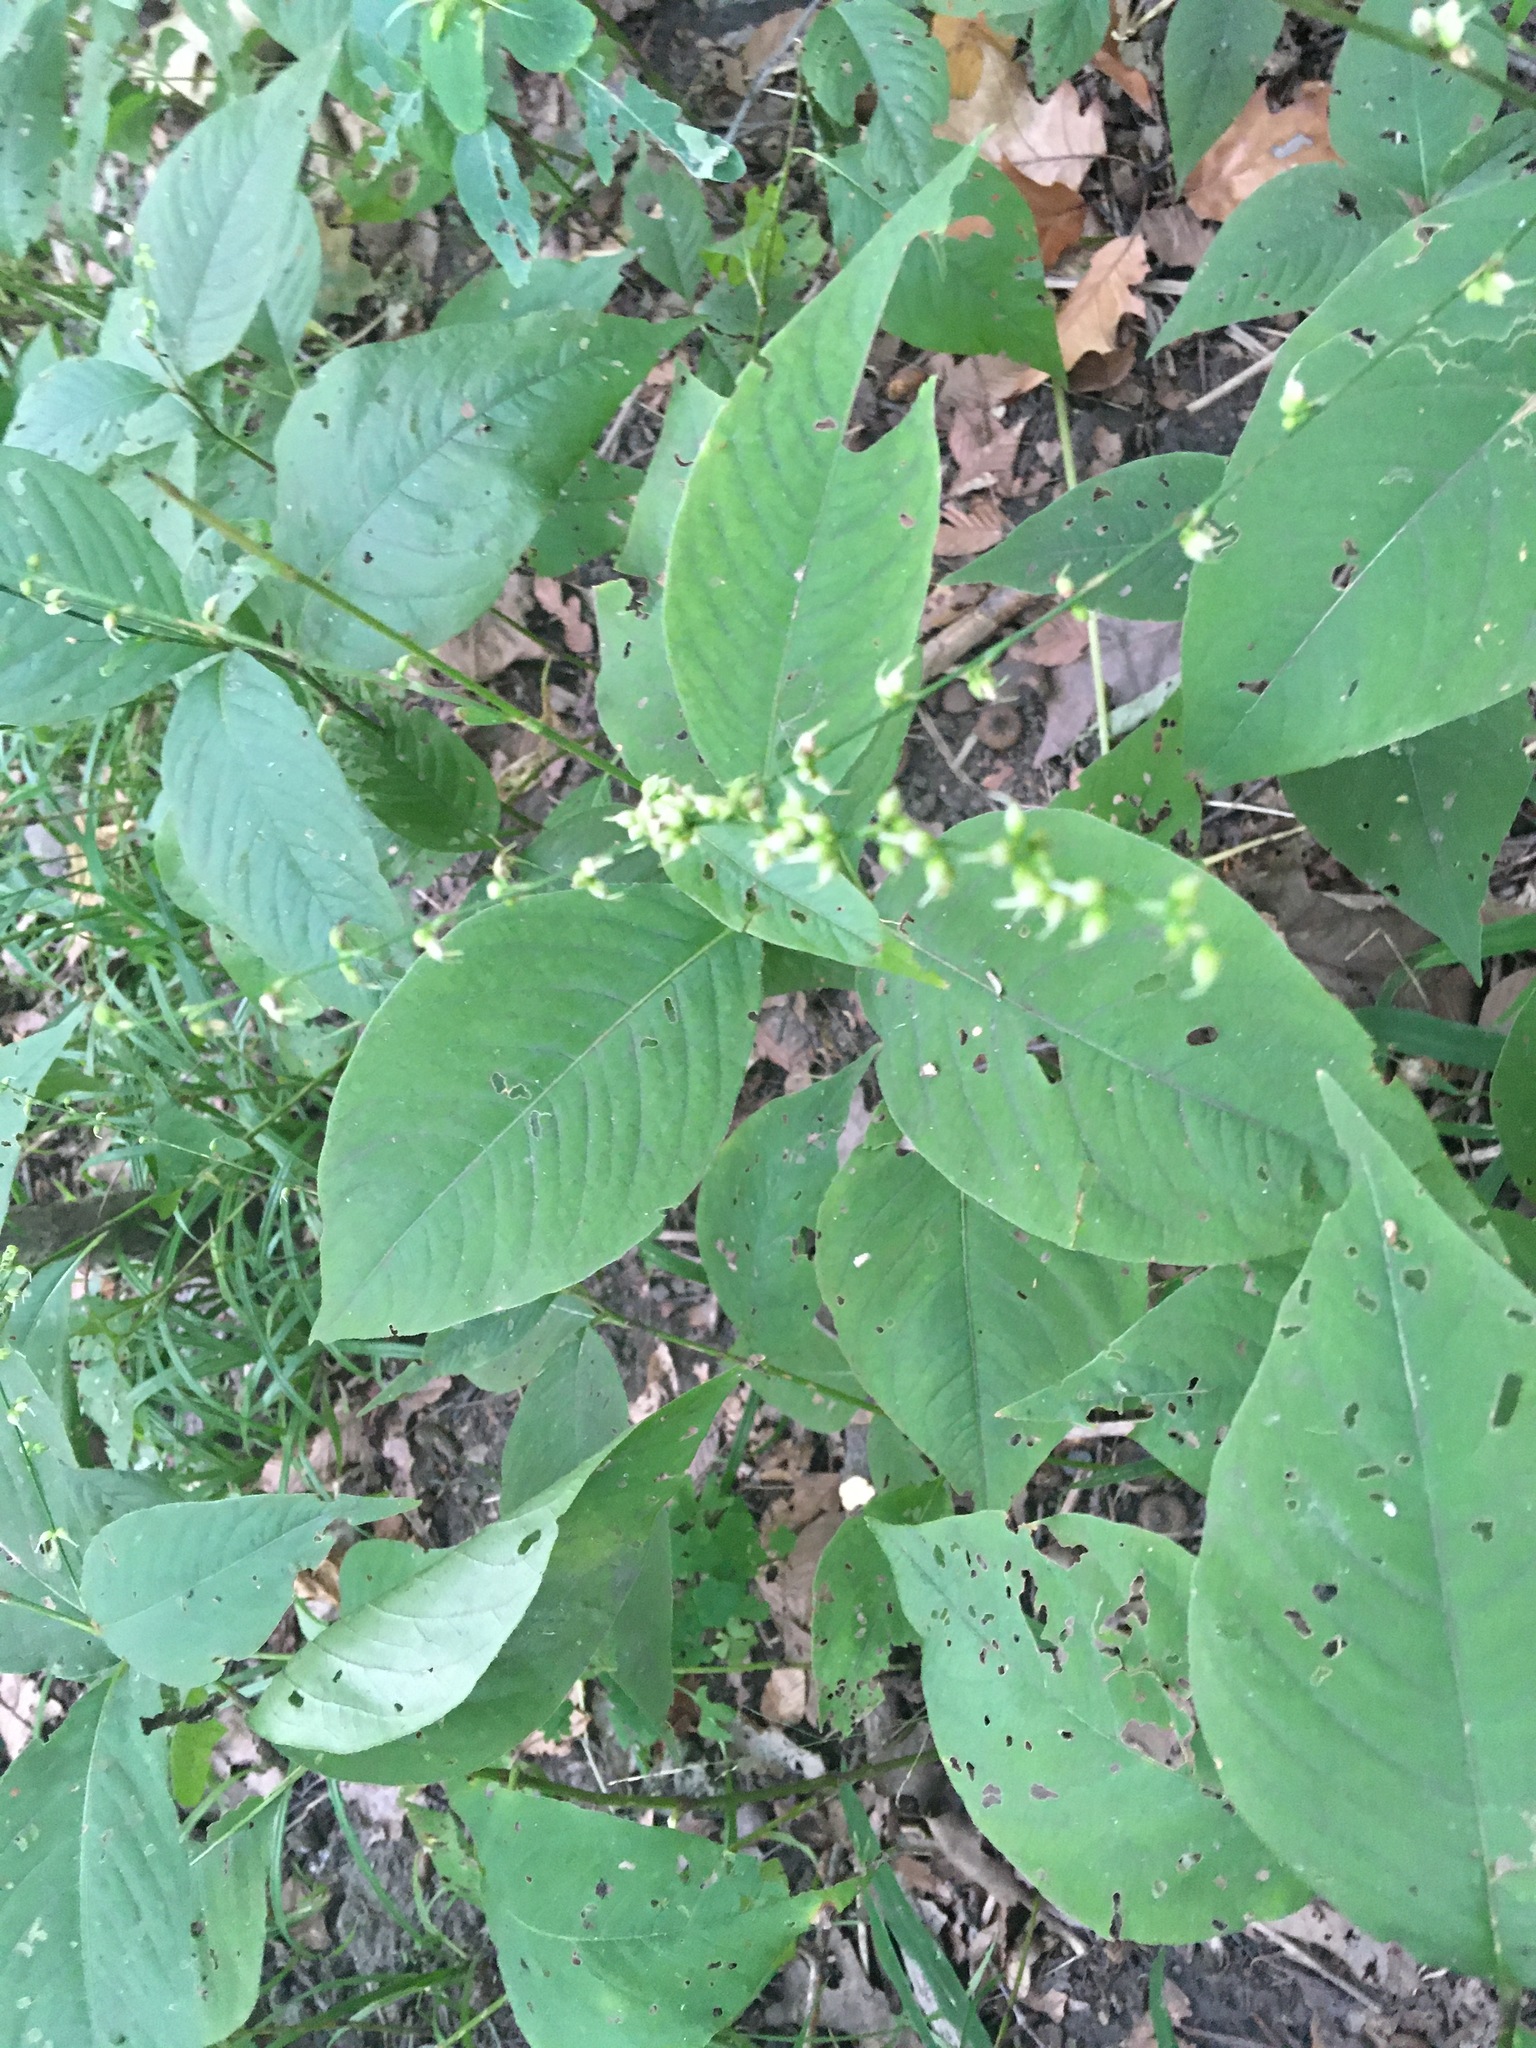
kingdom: Plantae
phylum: Tracheophyta
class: Magnoliopsida
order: Caryophyllales
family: Polygonaceae
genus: Persicaria
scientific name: Persicaria virginiana
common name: Jumpseed
